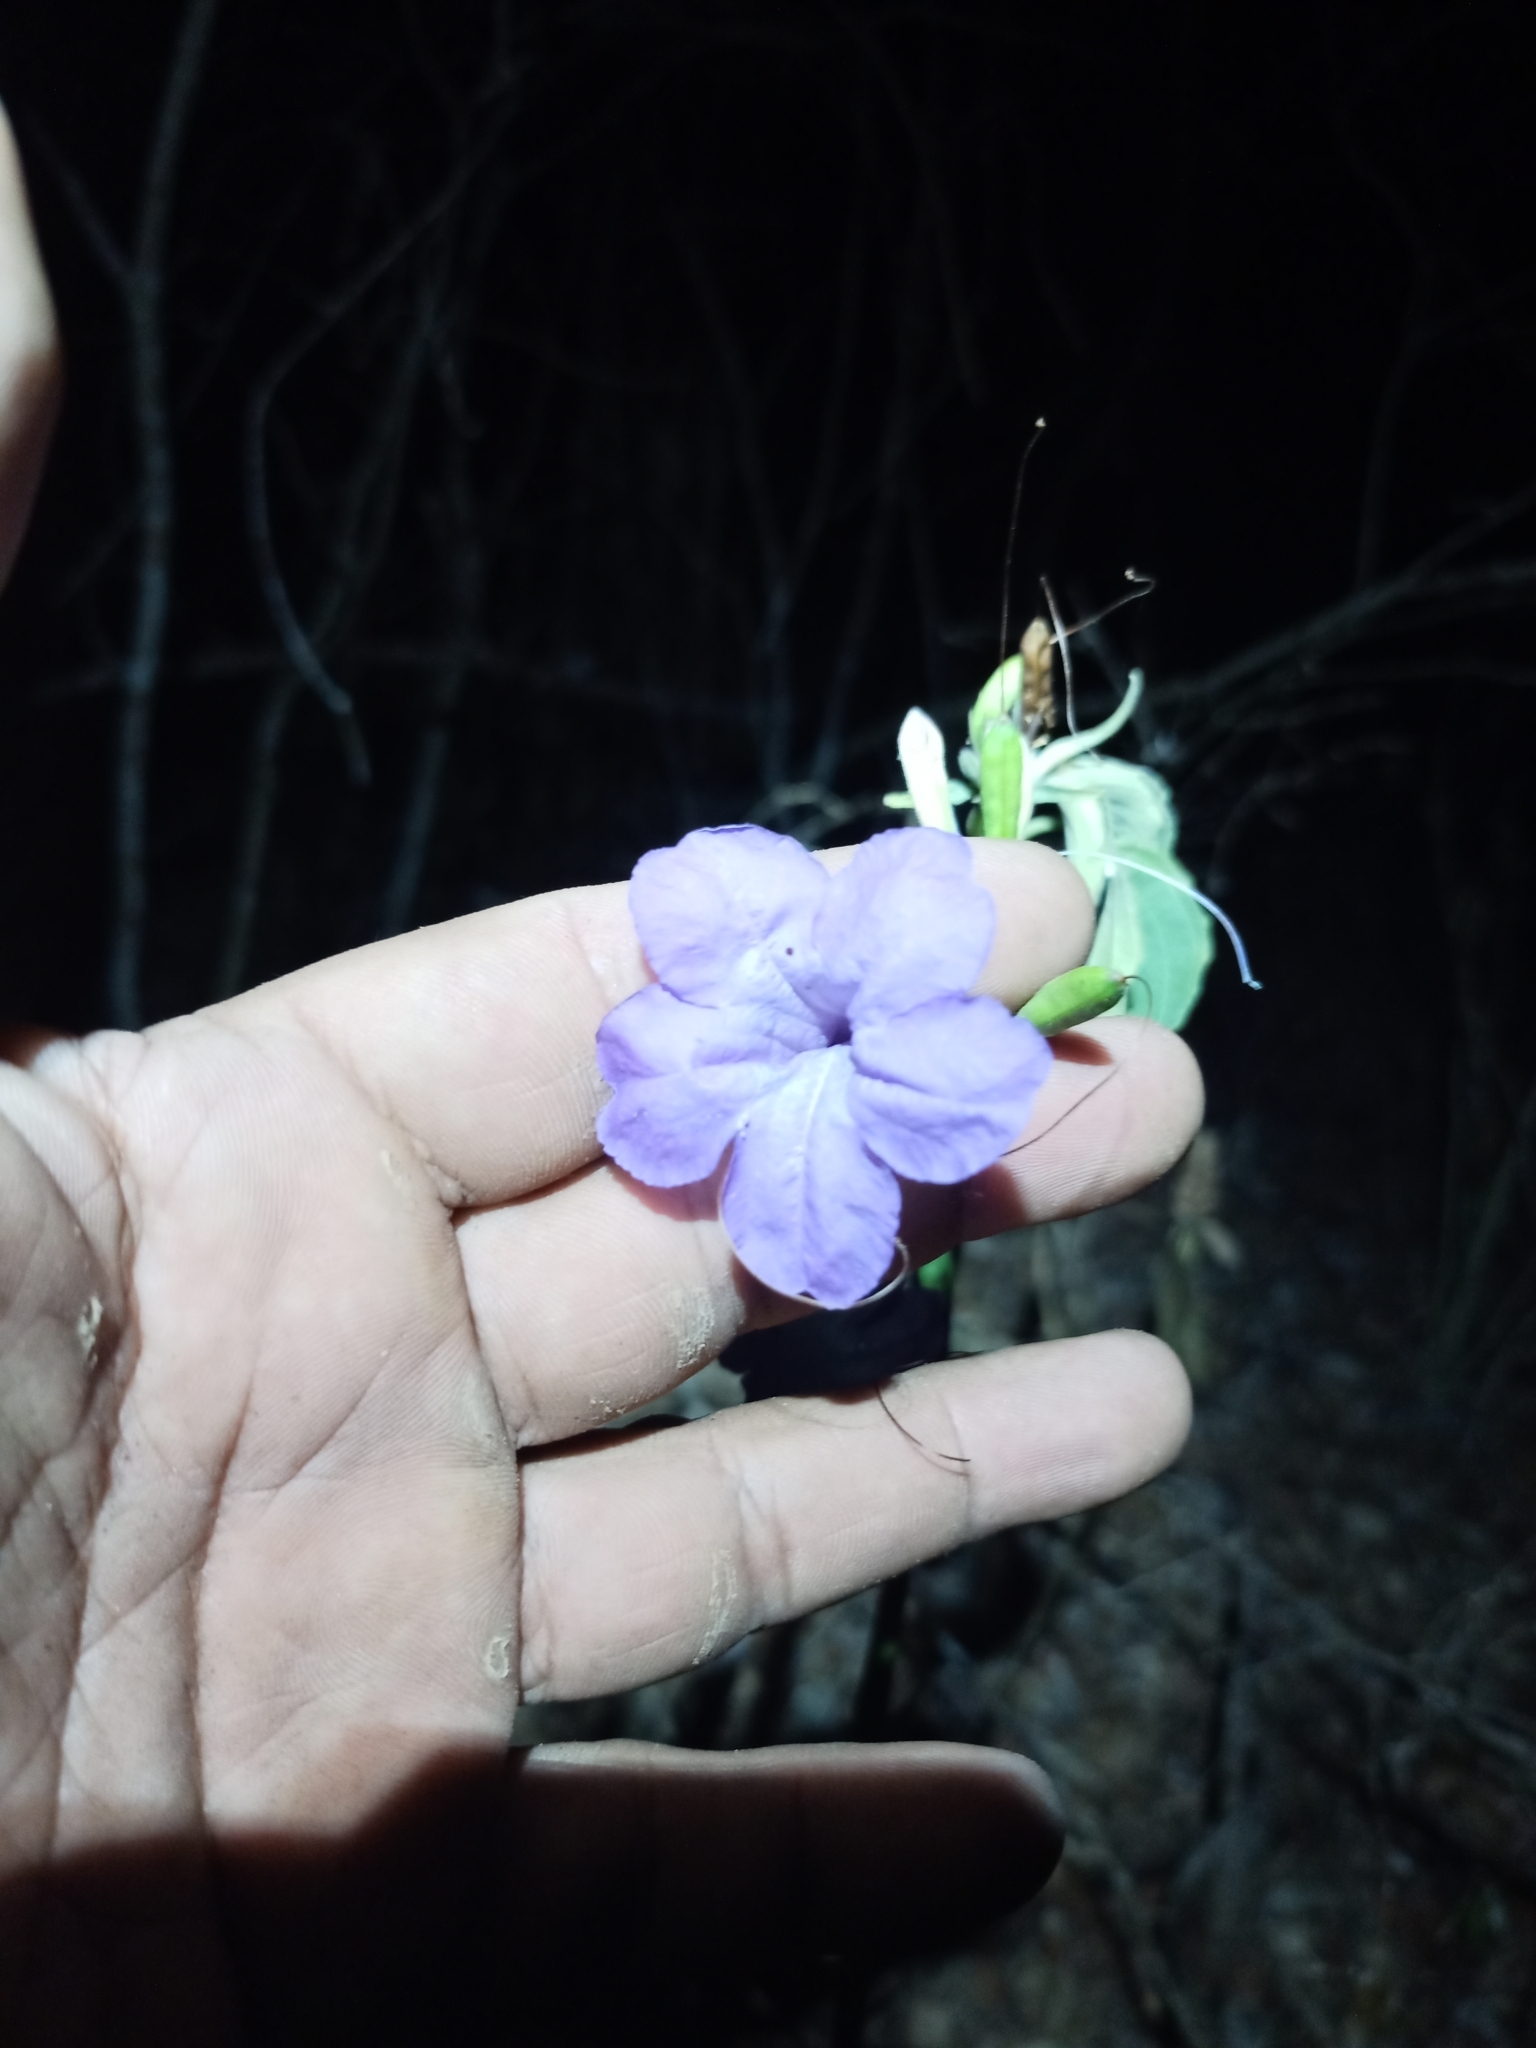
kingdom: Plantae
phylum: Tracheophyta
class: Magnoliopsida
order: Lamiales
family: Acanthaceae
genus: Ruellia
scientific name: Ruellia breedlovei
